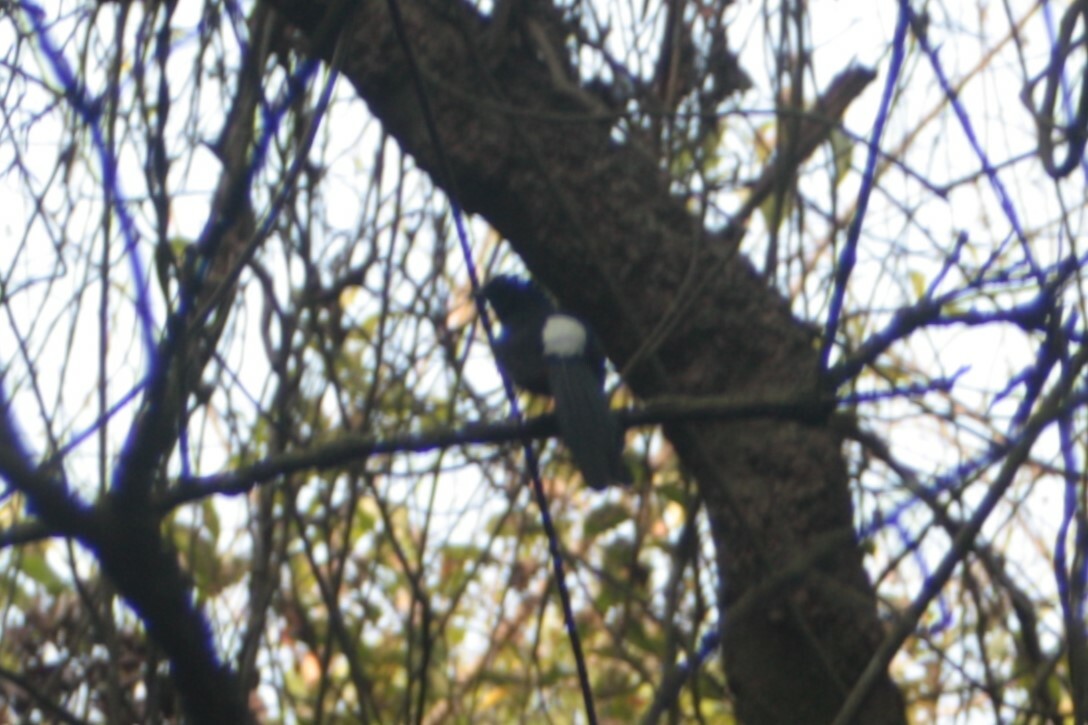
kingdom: Animalia
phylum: Chordata
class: Aves
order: Passeriformes
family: Muscicapidae
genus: Copsychus
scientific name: Copsychus malabaricus
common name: White-rumped shama
